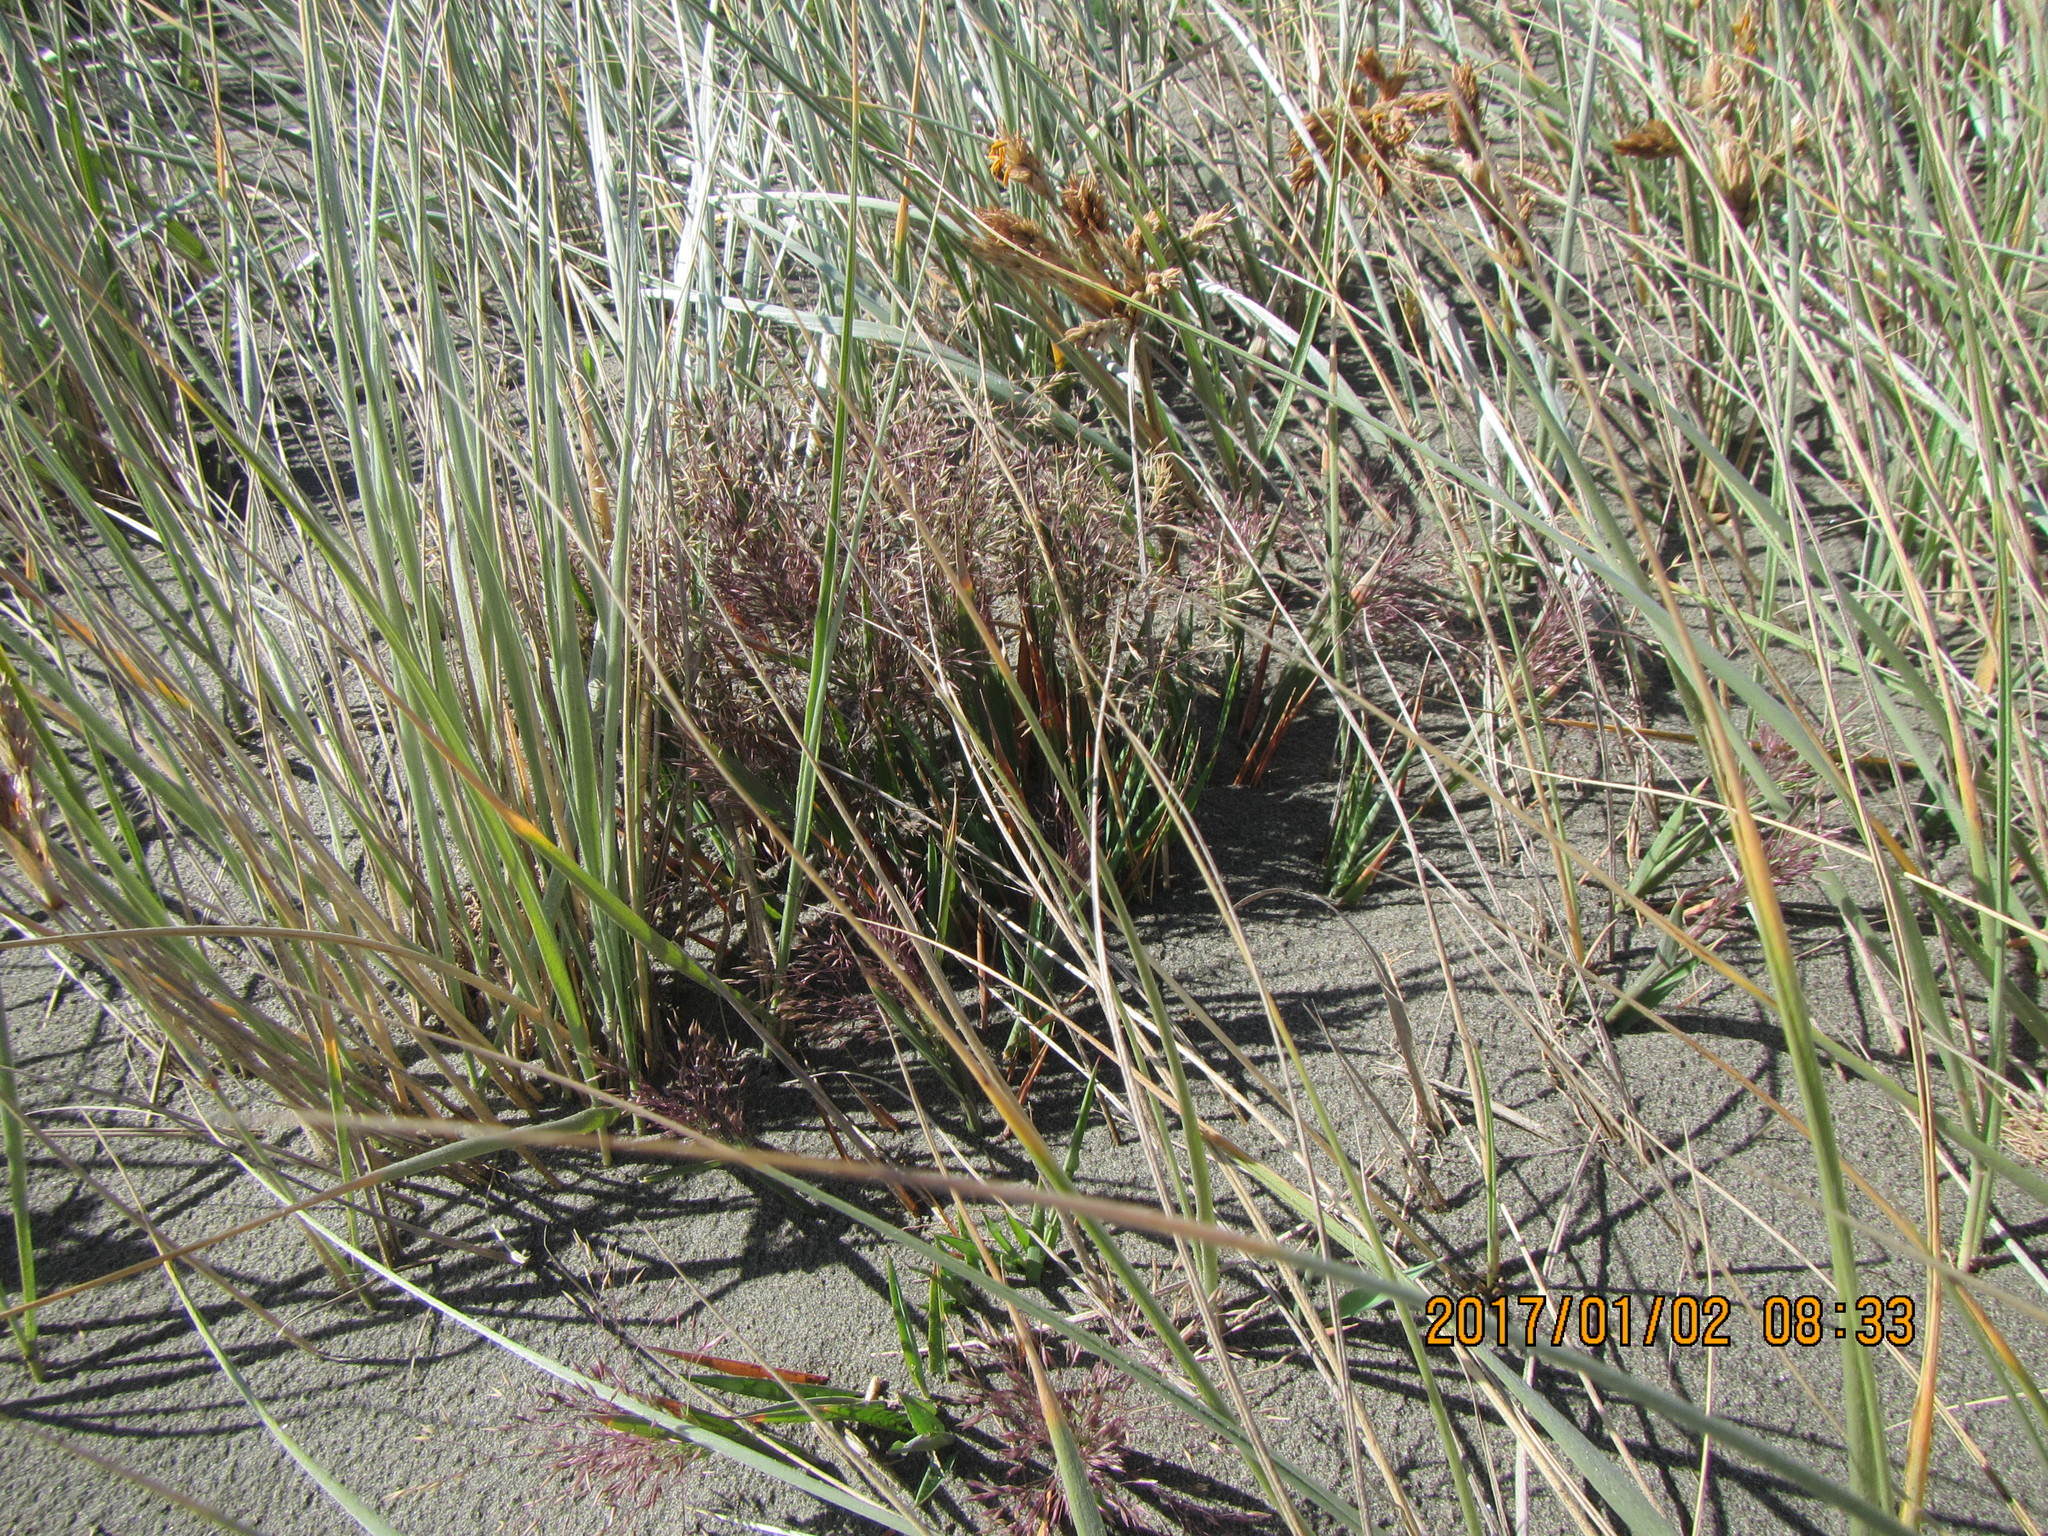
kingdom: Plantae
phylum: Tracheophyta
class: Liliopsida
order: Poales
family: Poaceae
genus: Lachnagrostis
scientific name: Lachnagrostis billardierei
